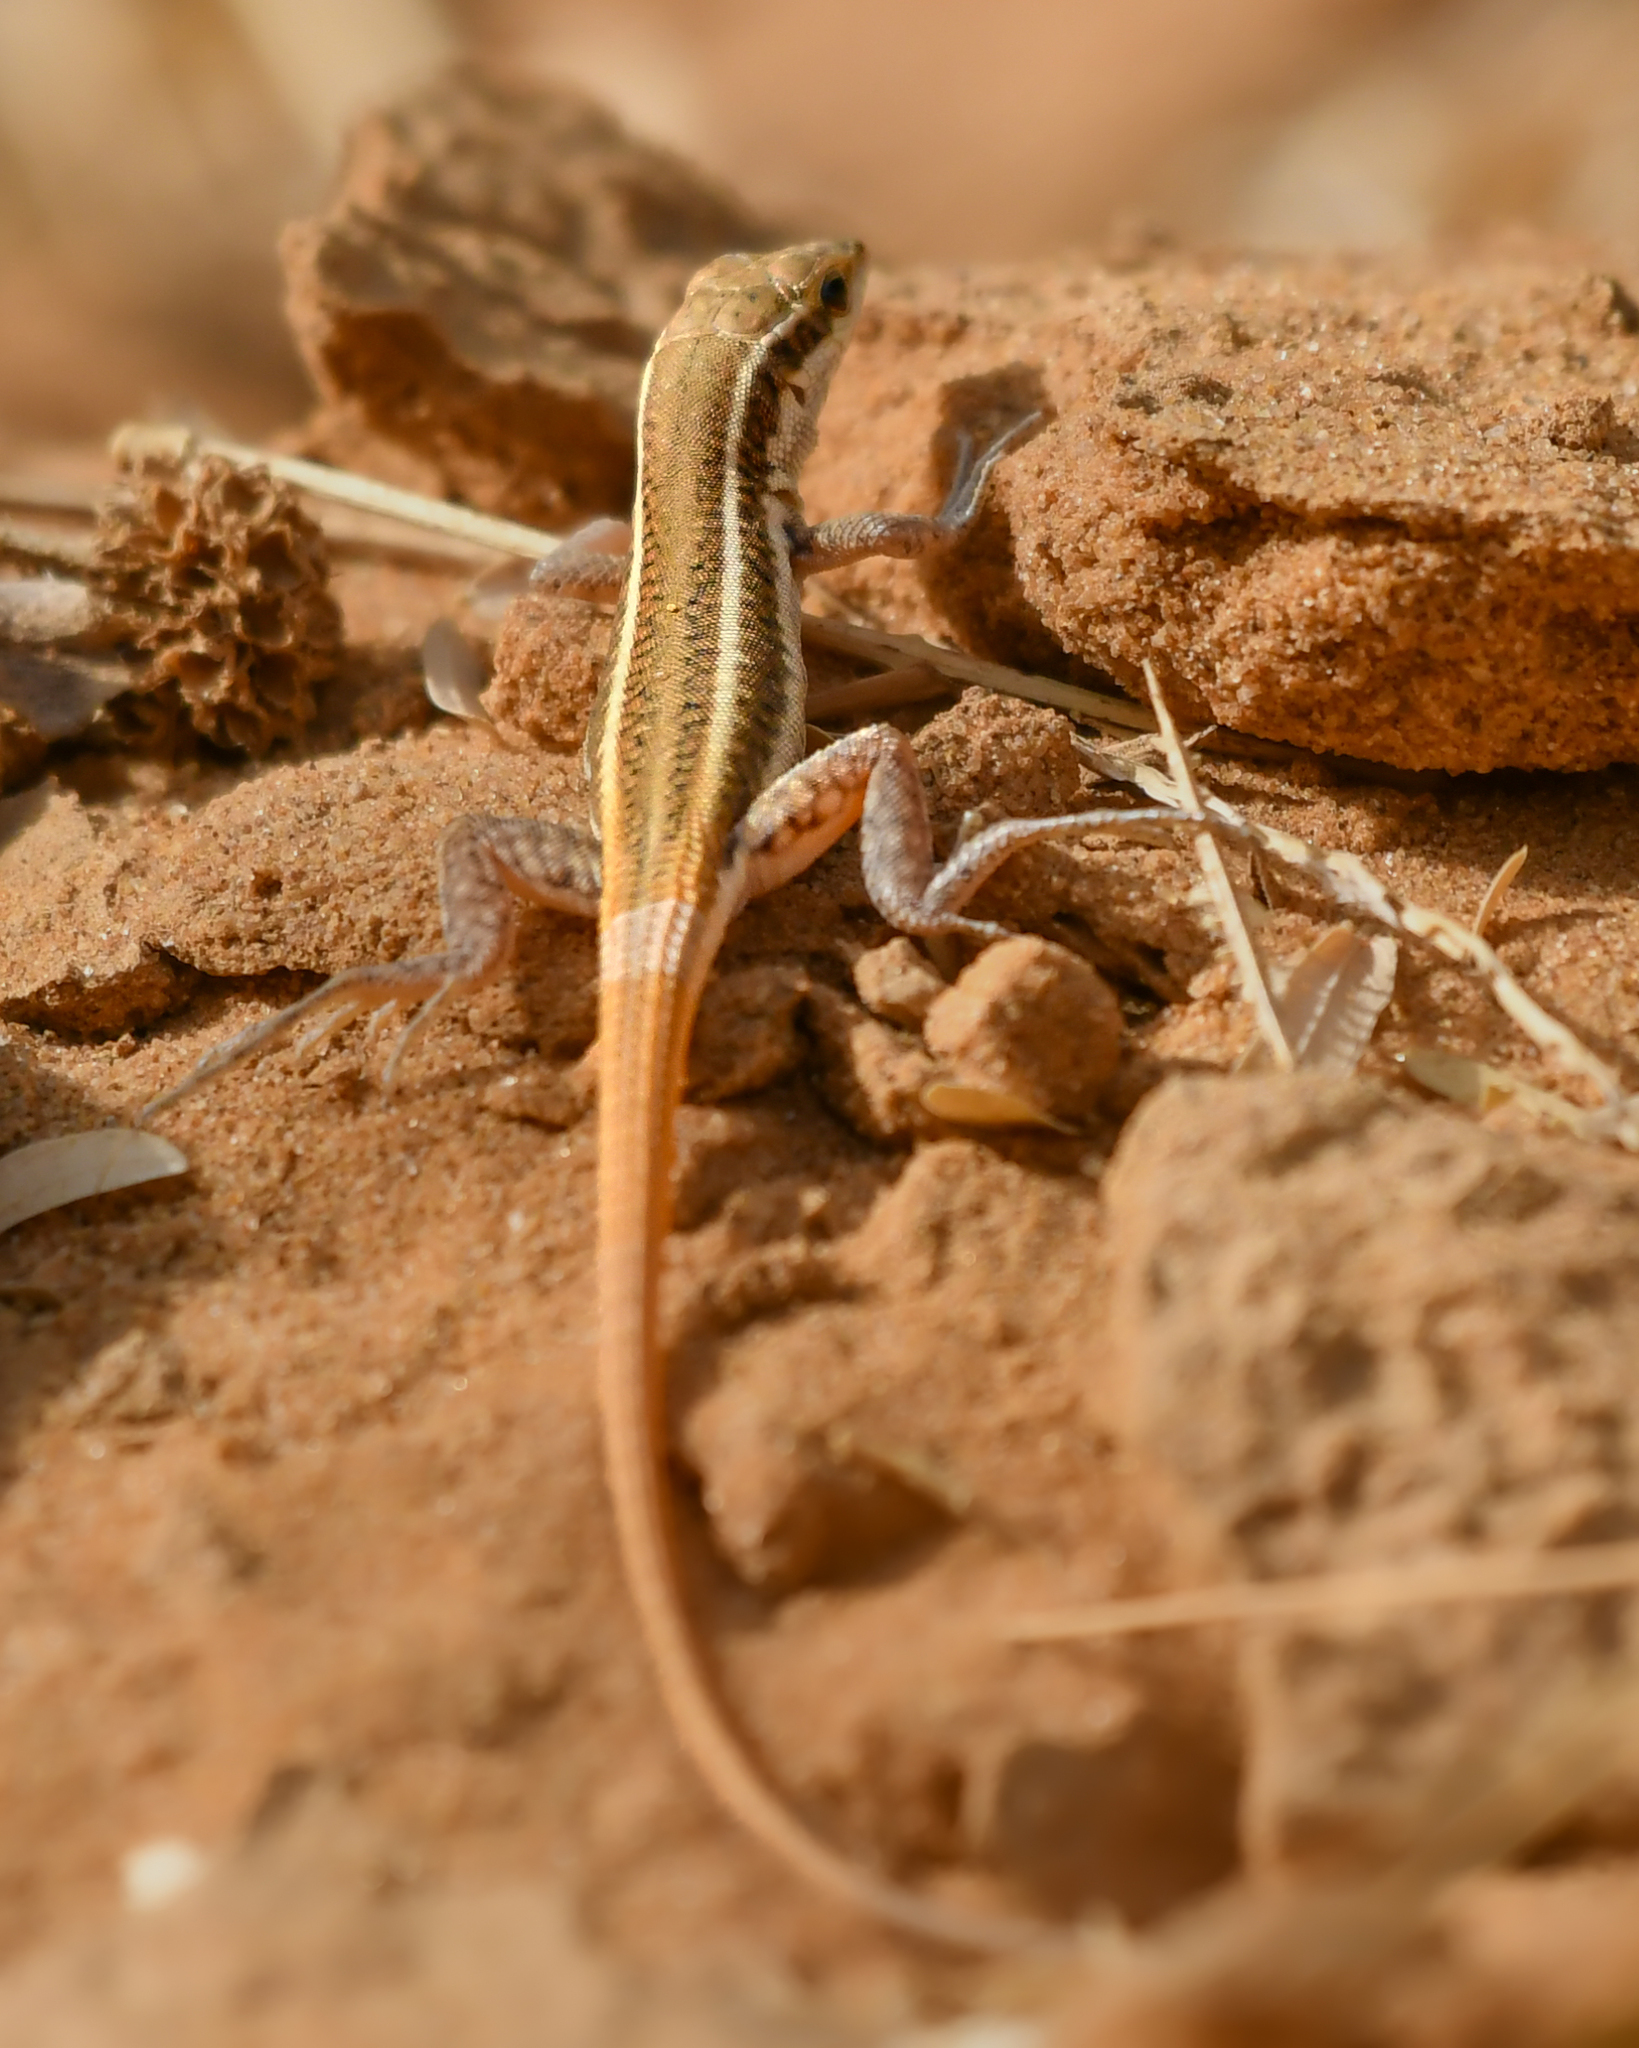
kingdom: Animalia
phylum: Chordata
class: Squamata
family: Lacertidae
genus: Ophisops
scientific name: Ophisops kutchensis
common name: Kutch small-scaled snake-eye
